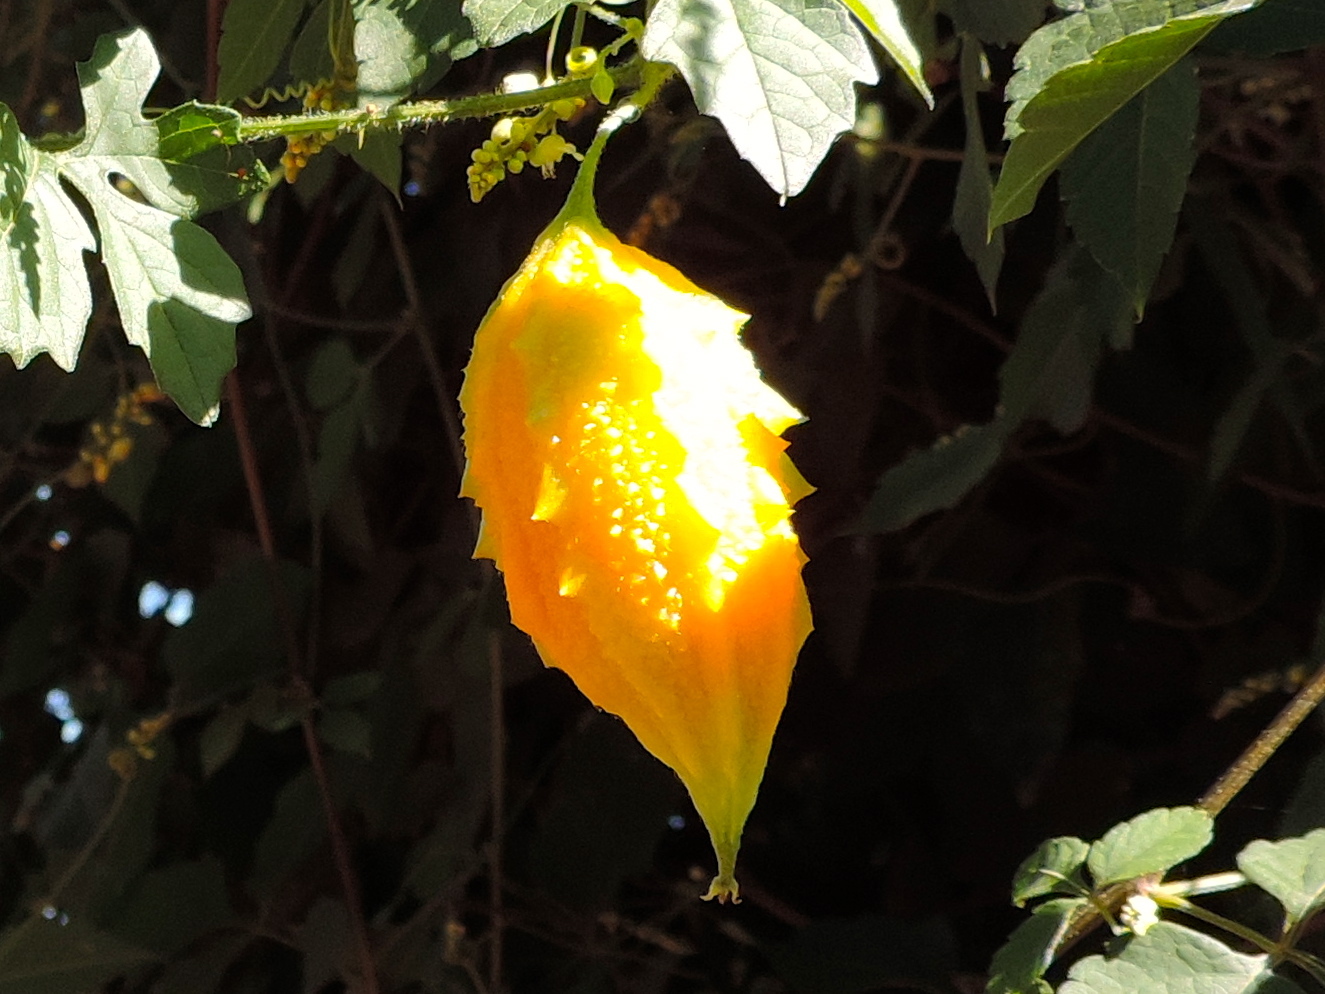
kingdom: Plantae
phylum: Tracheophyta
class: Magnoliopsida
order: Cucurbitales
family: Cucurbitaceae
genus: Momordica
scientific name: Momordica charantia
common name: Balsampear
